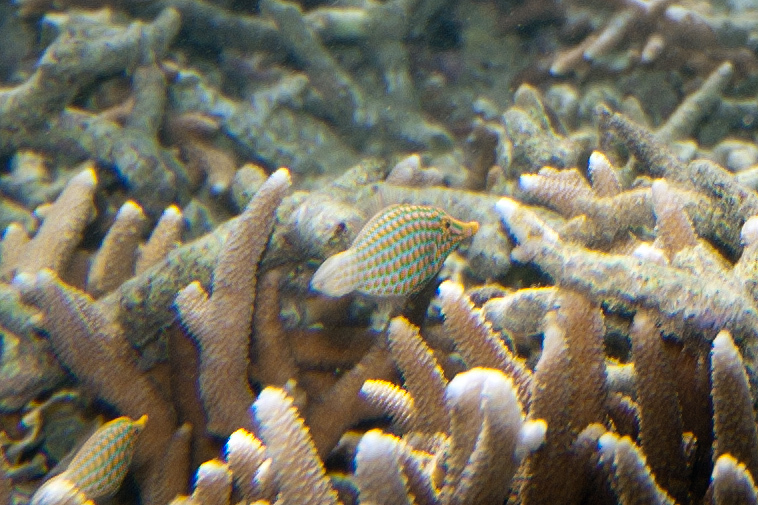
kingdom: Animalia
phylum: Chordata
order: Tetraodontiformes
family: Monacanthidae
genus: Oxymonacanthus
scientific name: Oxymonacanthus longirostris
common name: Beaked leatherjacket
